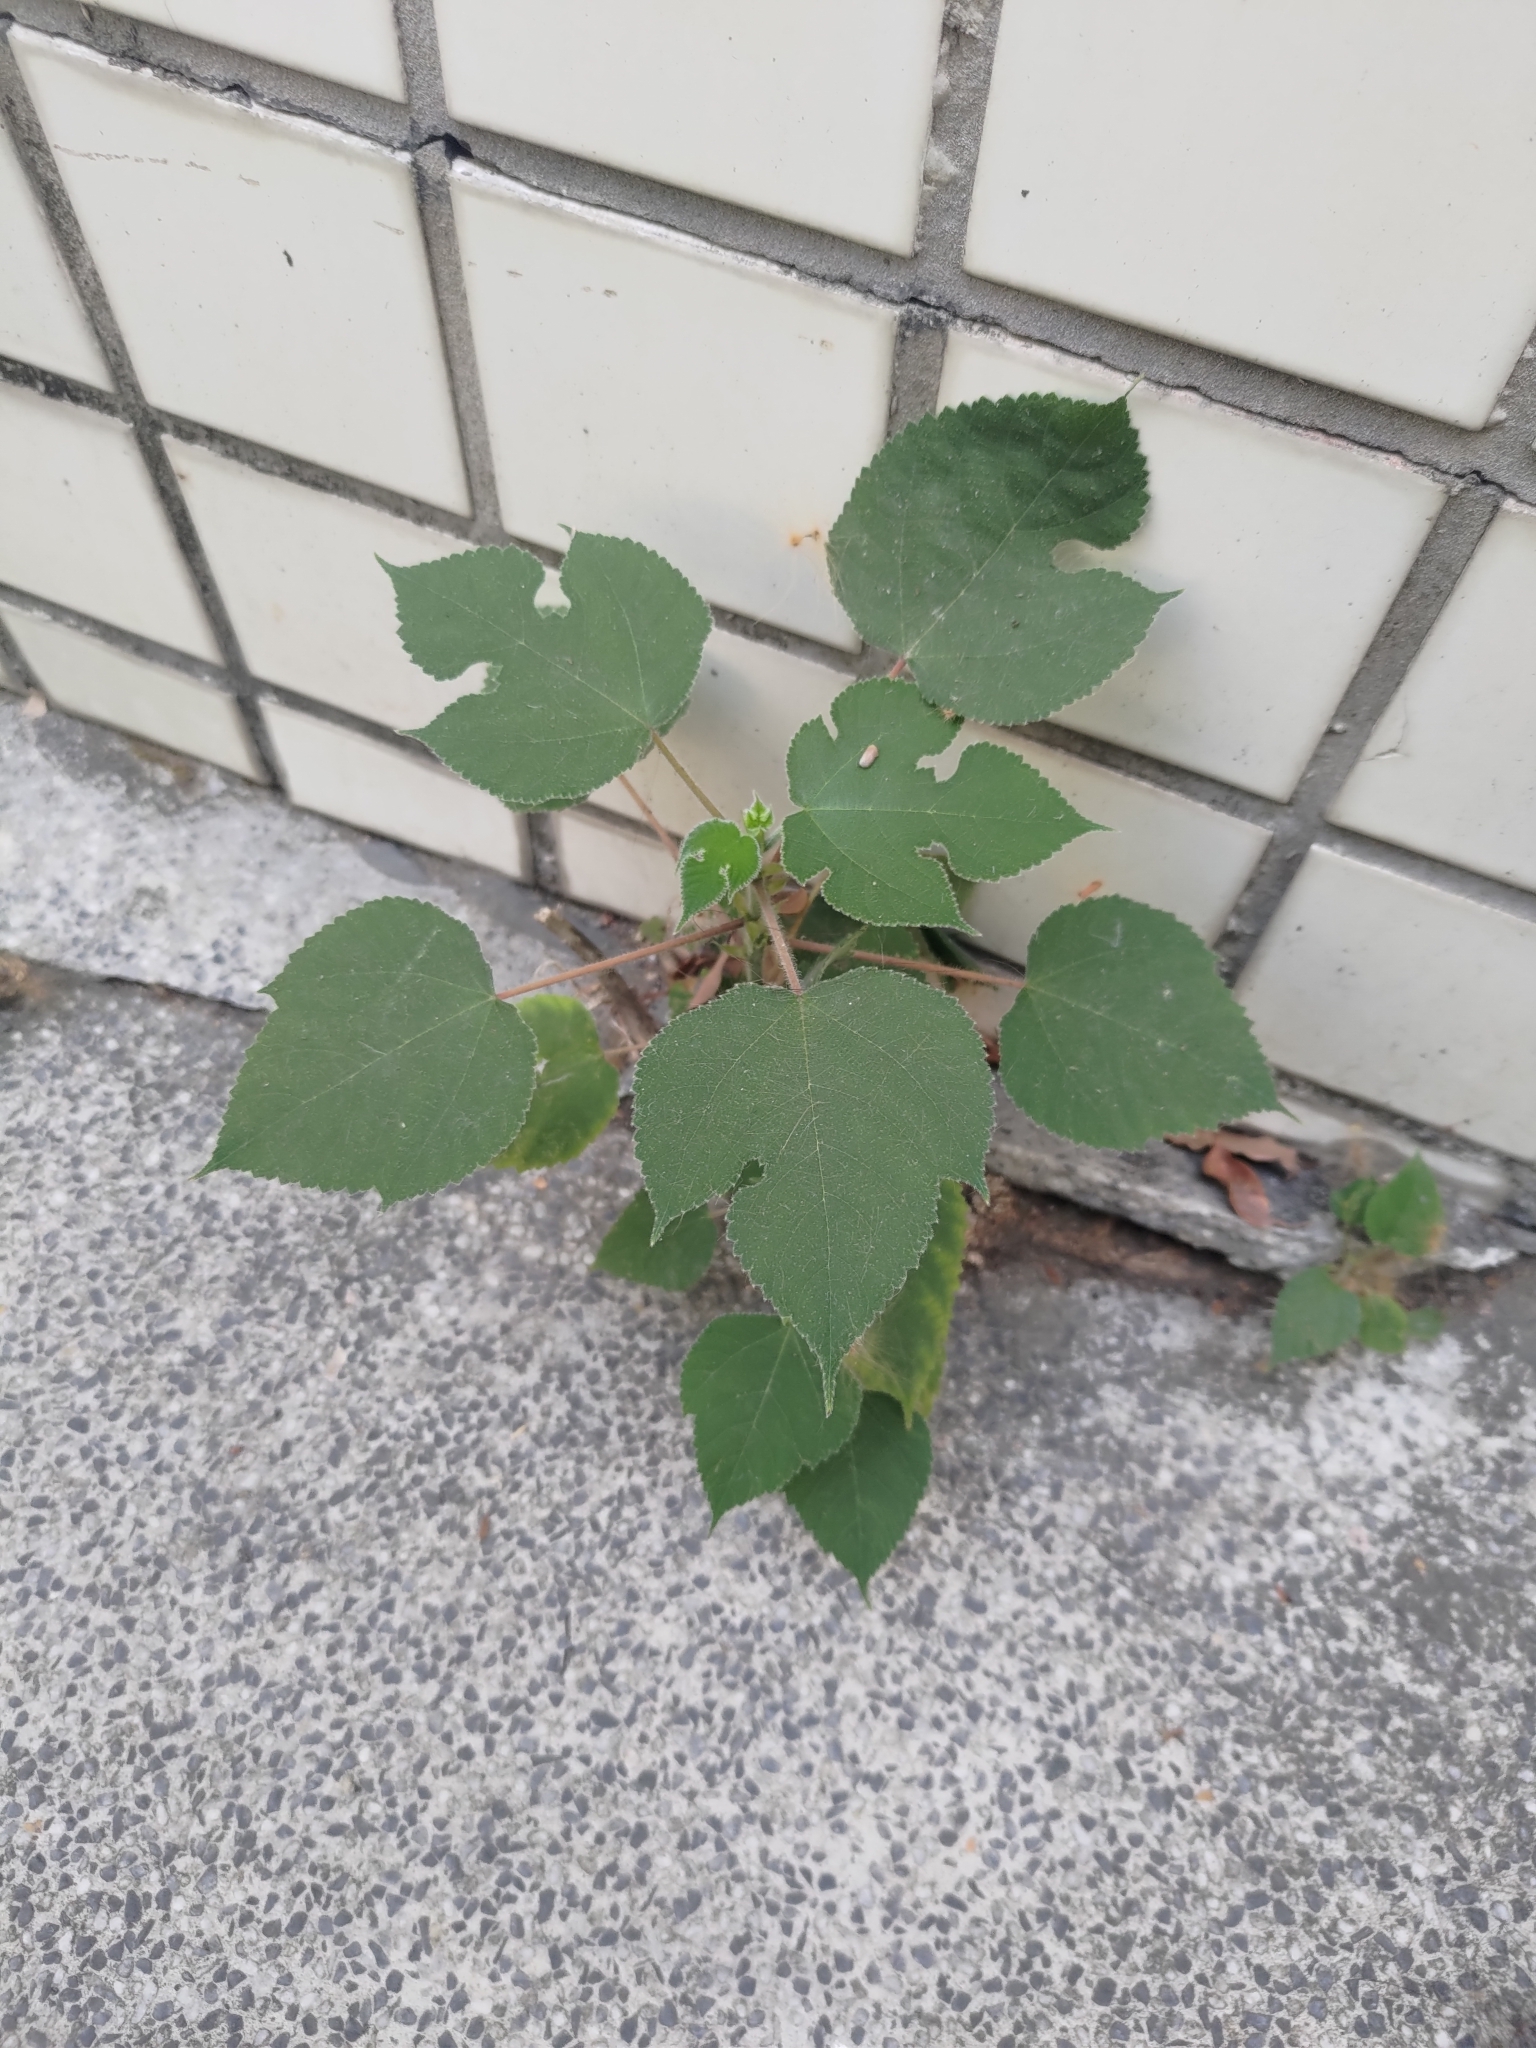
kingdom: Plantae
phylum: Tracheophyta
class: Magnoliopsida
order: Rosales
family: Moraceae
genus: Broussonetia
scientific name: Broussonetia papyrifera
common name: Paper mulberry
